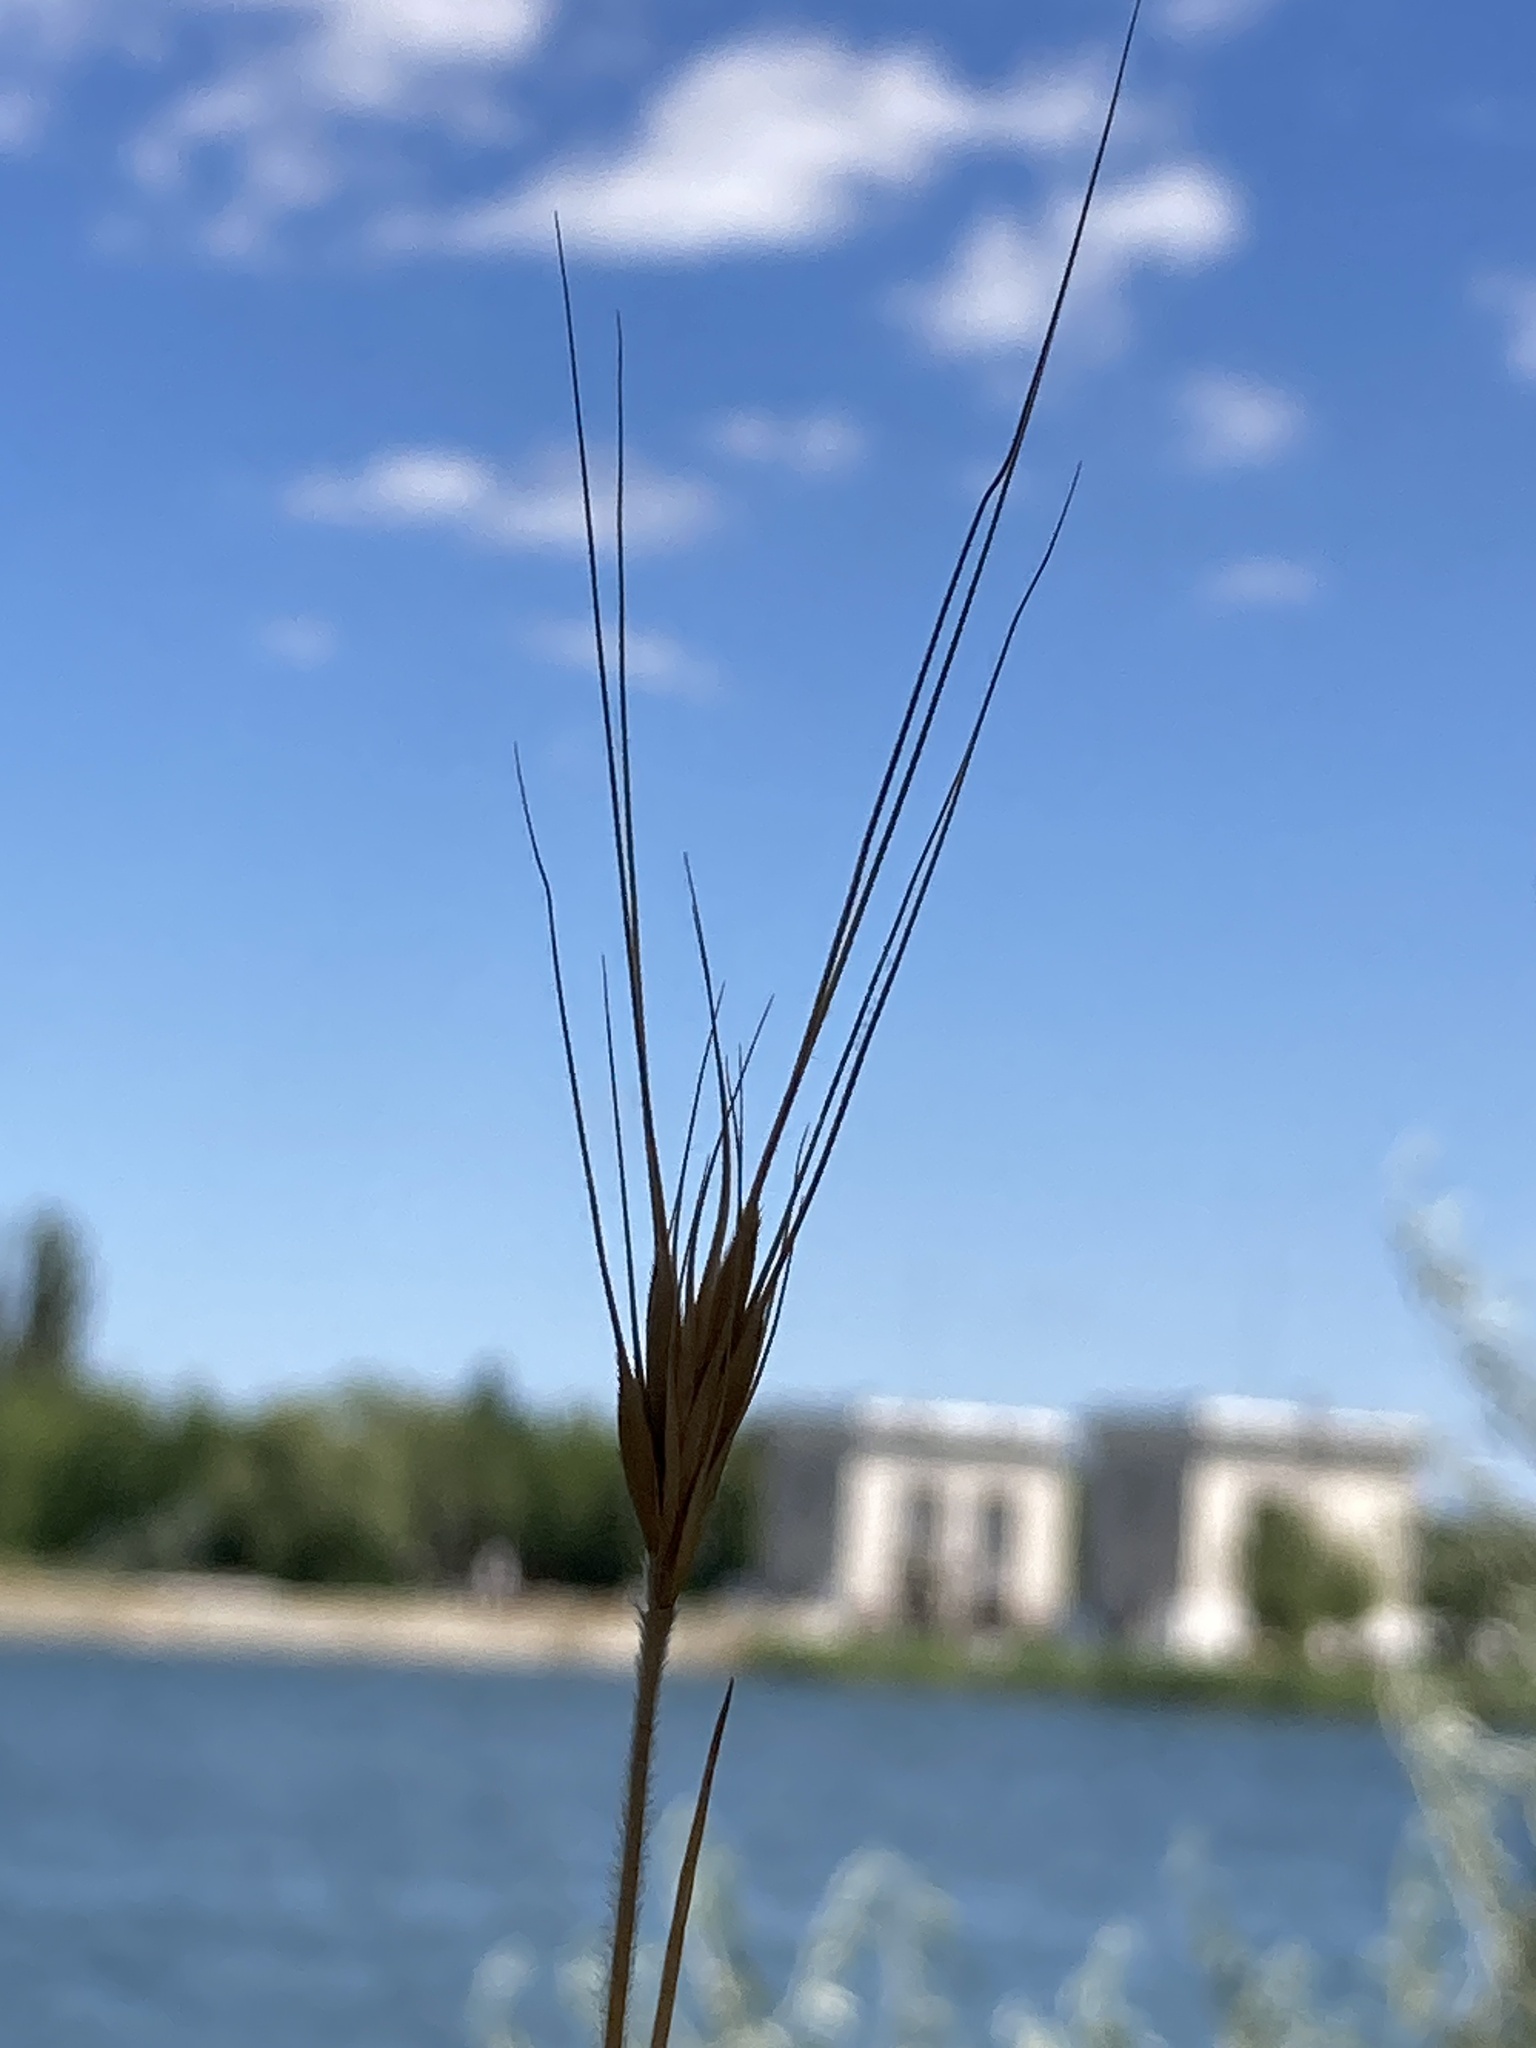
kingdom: Plantae
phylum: Tracheophyta
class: Liliopsida
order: Poales
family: Poaceae
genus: Secale
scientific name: Secale sylvestre
